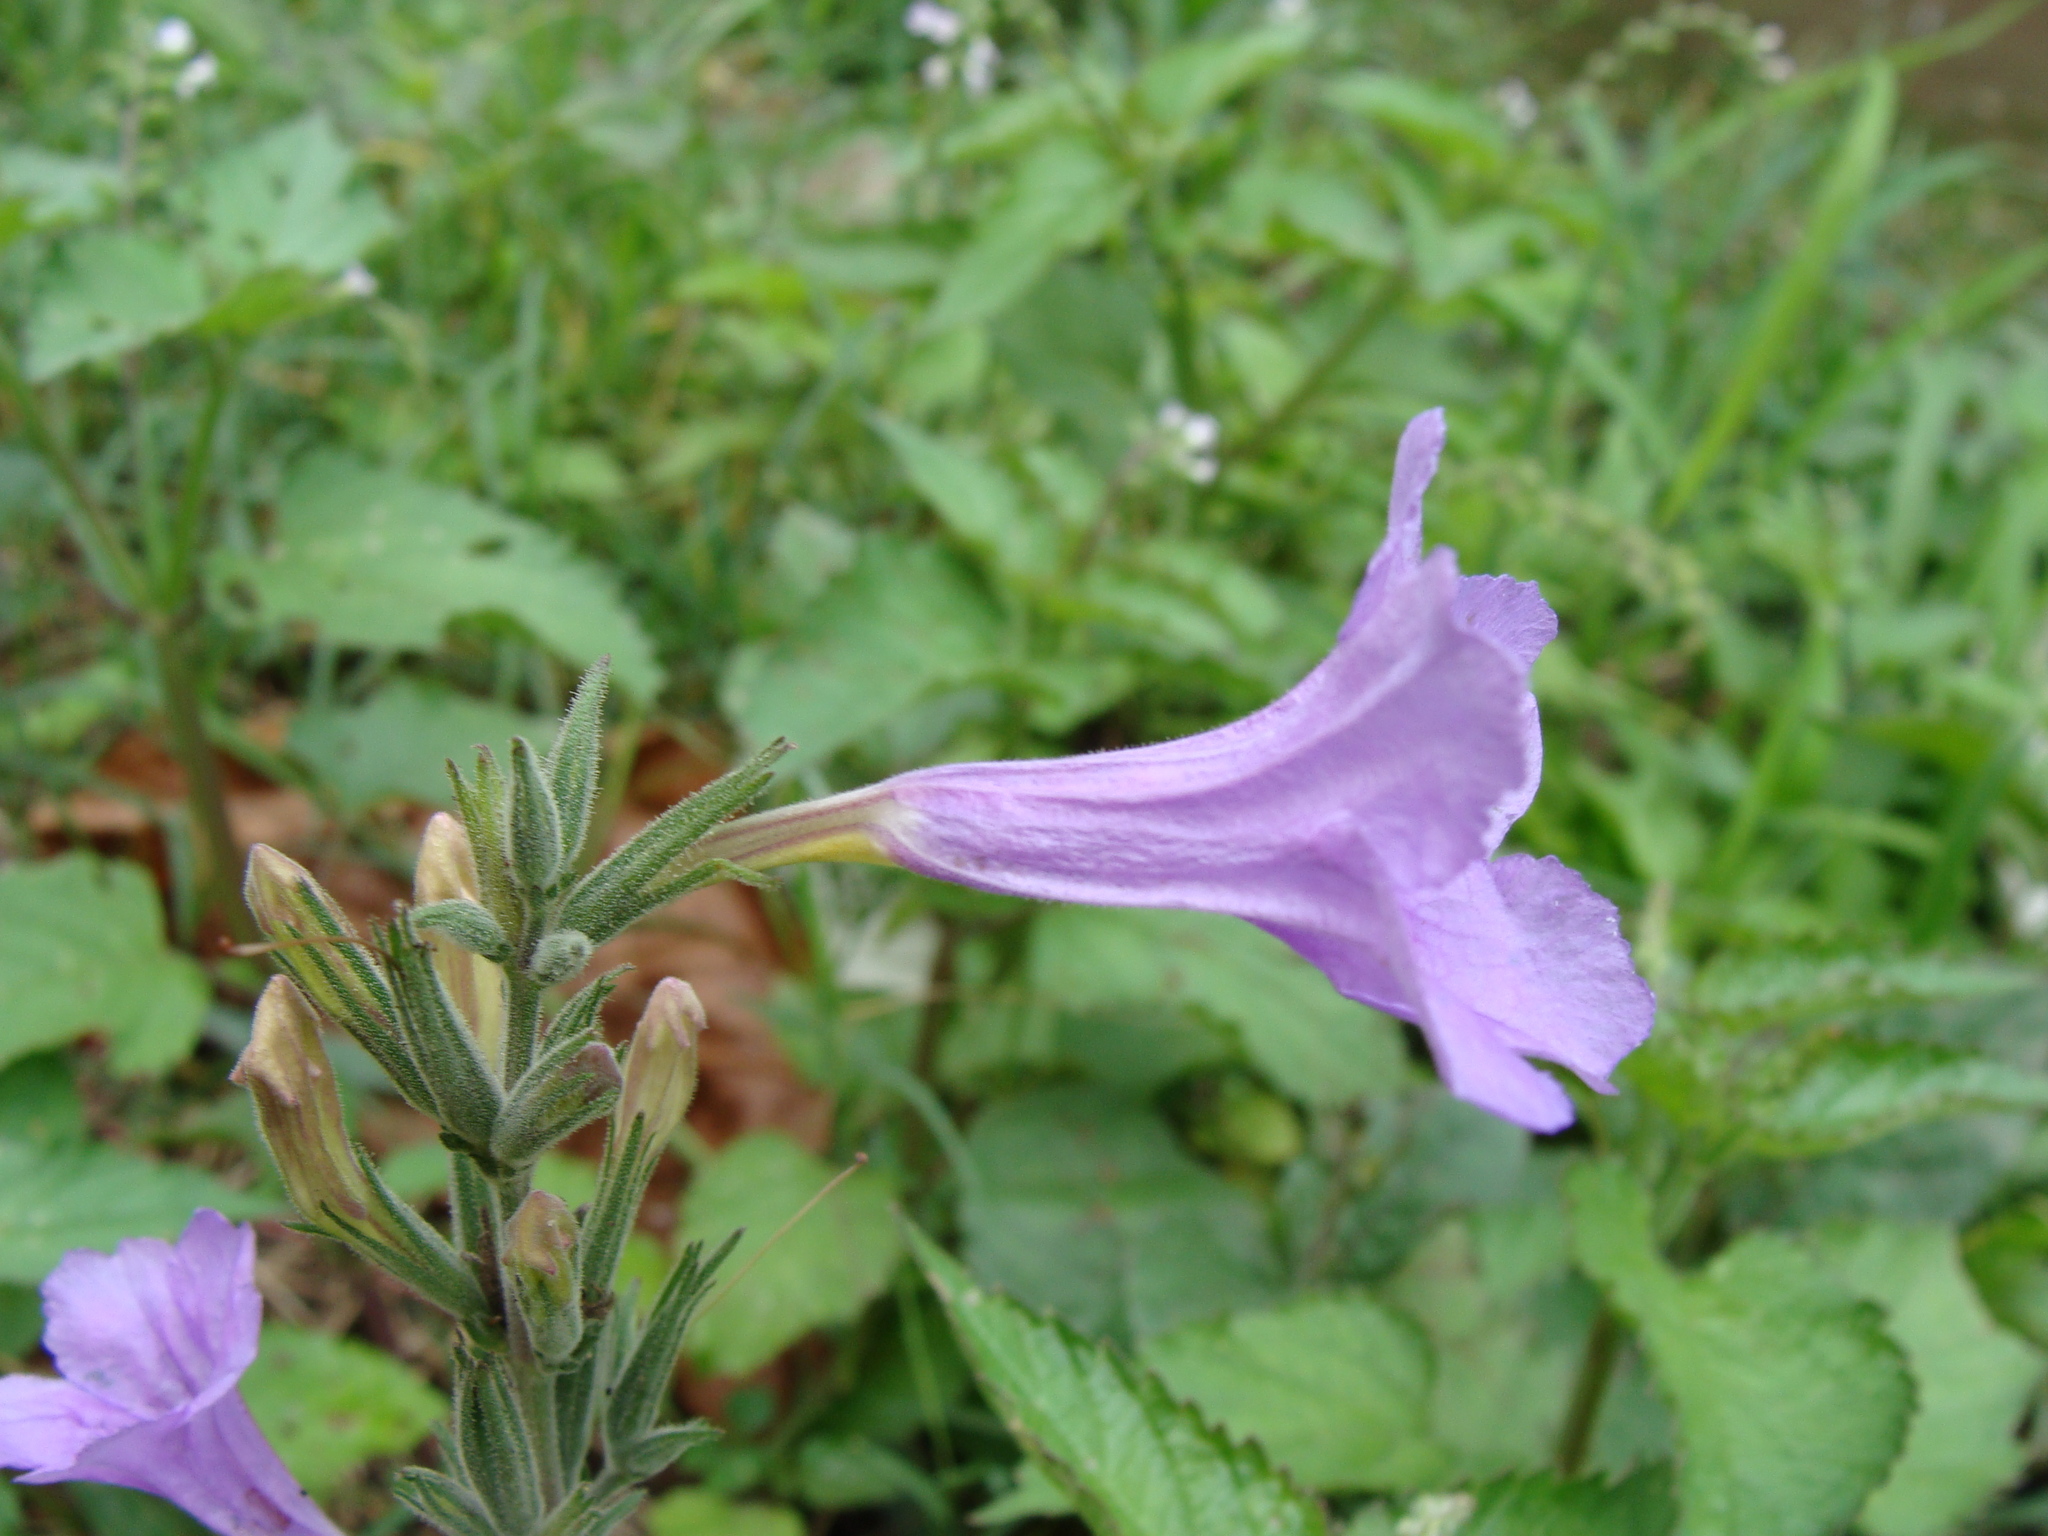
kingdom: Plantae
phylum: Tracheophyta
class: Magnoliopsida
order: Lamiales
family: Acanthaceae
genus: Ruellia
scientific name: Ruellia ciliatiflora
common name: Hairyflower wild petunia
